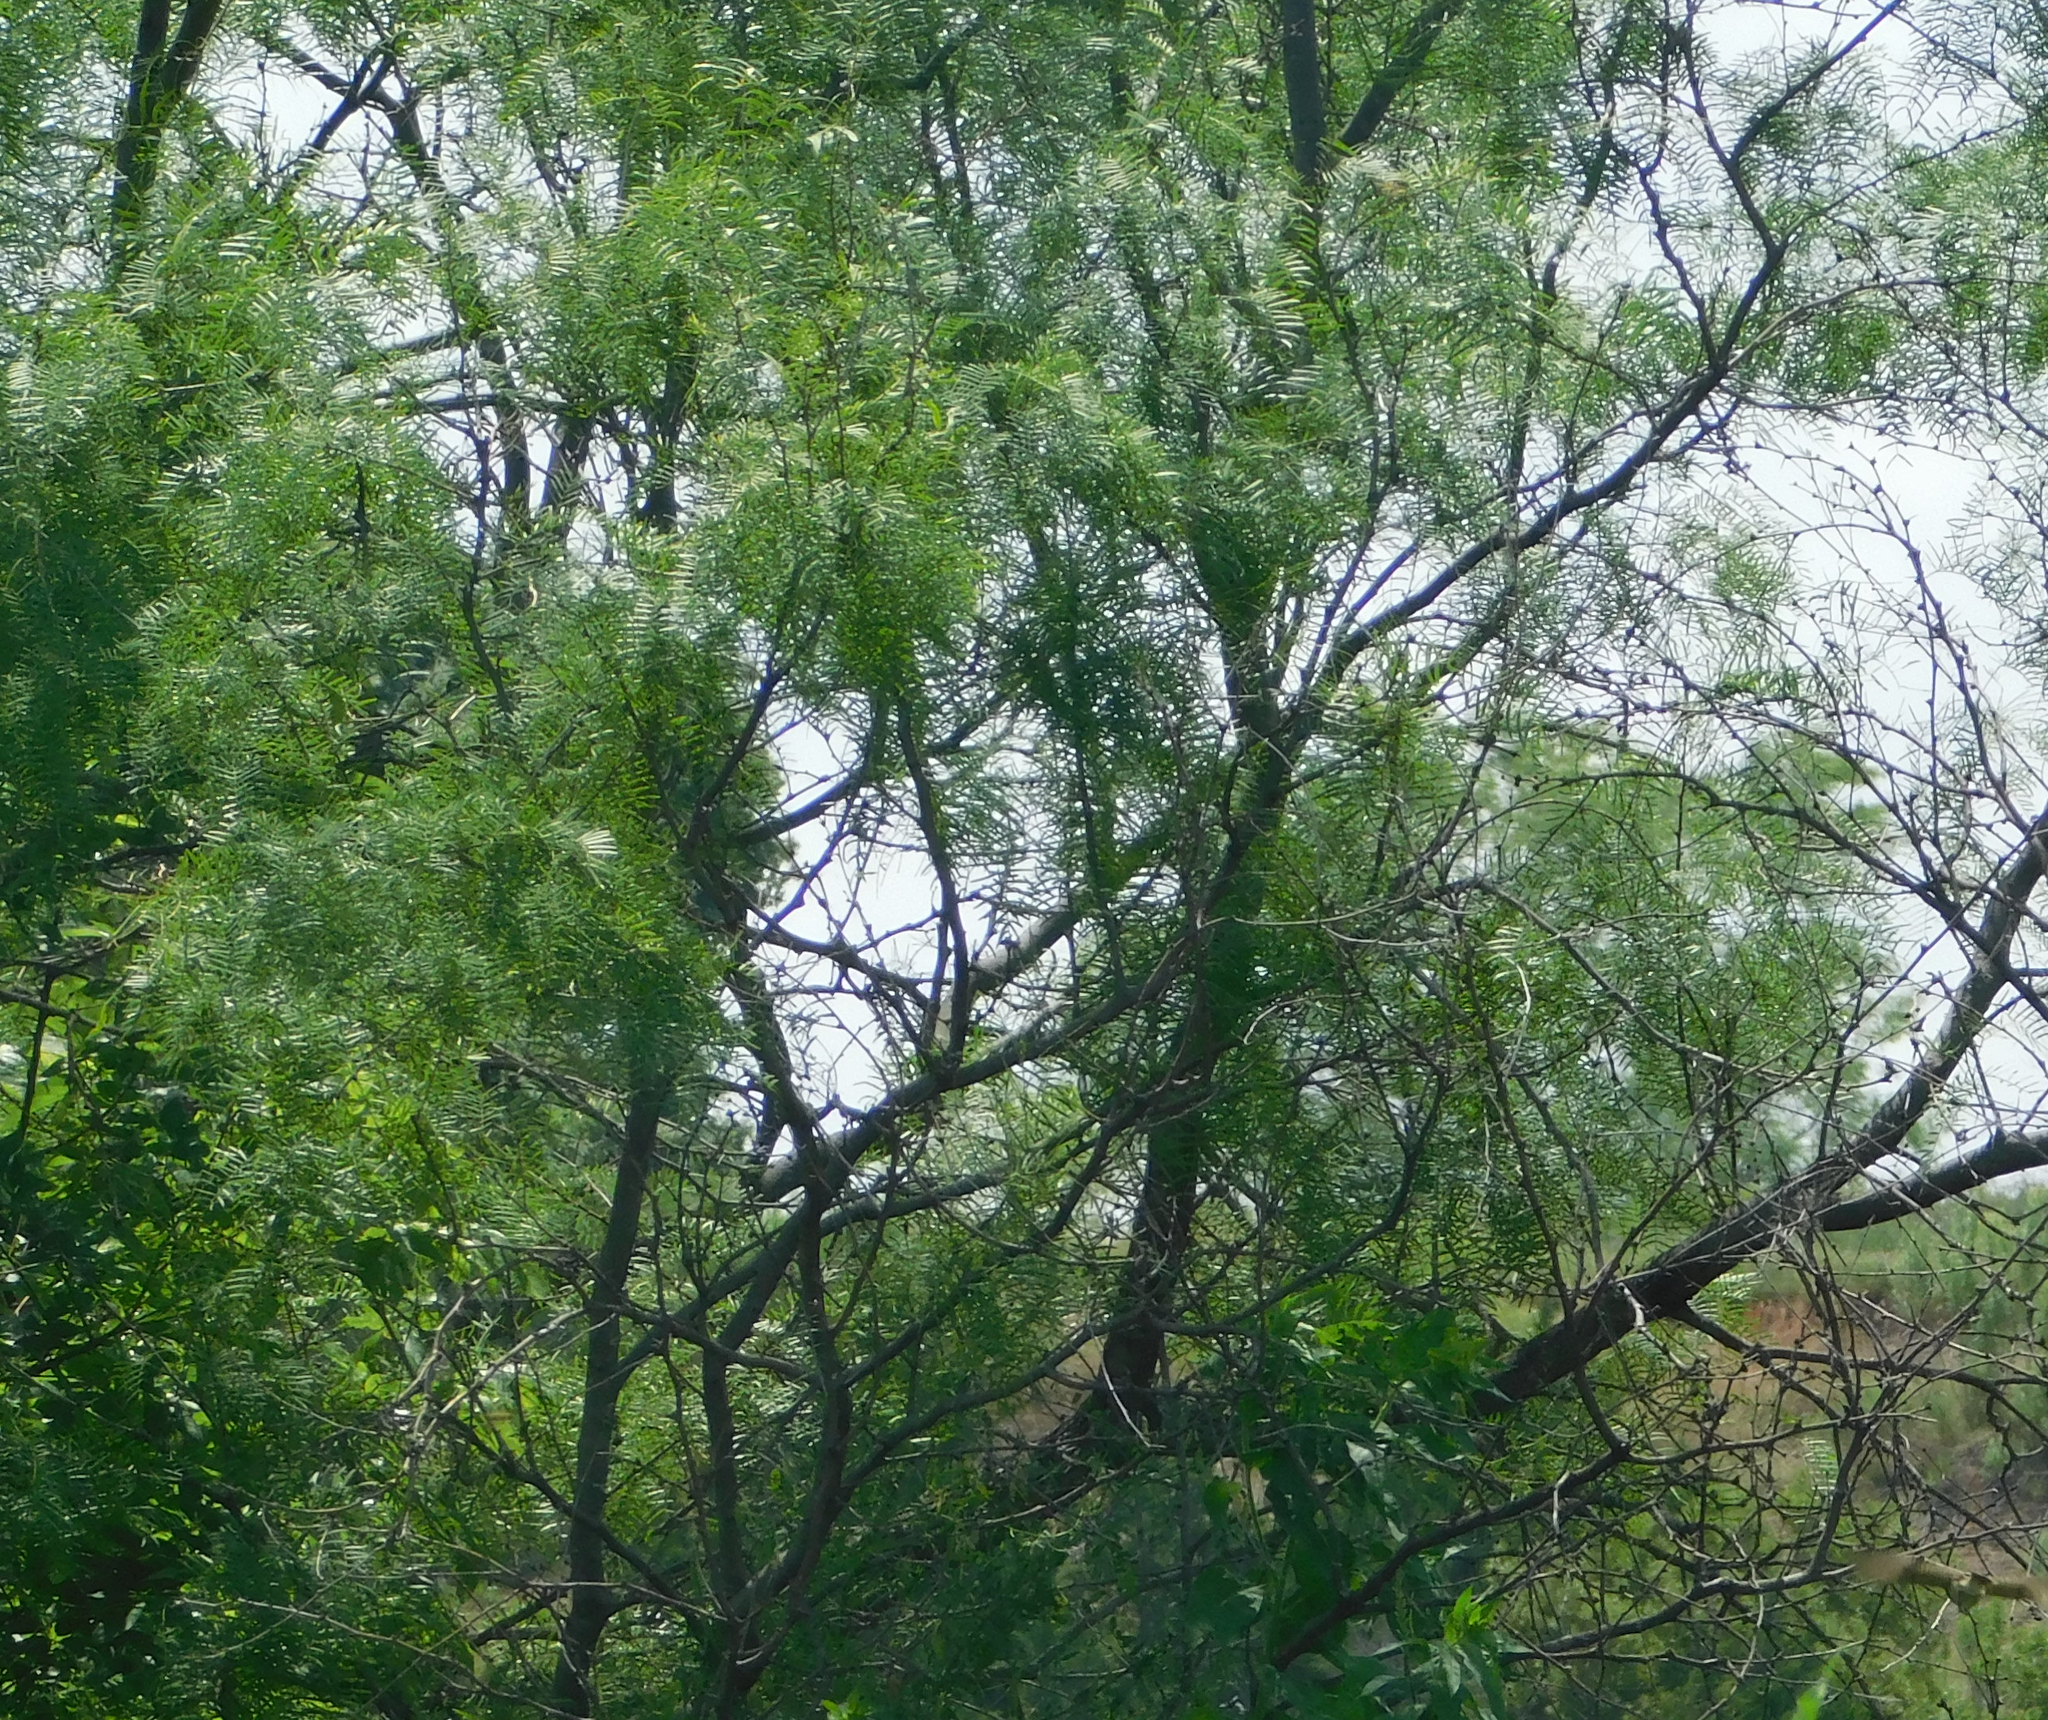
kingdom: Plantae
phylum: Tracheophyta
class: Magnoliopsida
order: Fabales
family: Fabaceae
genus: Prosopis
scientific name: Prosopis glandulosa
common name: Honey mesquite
